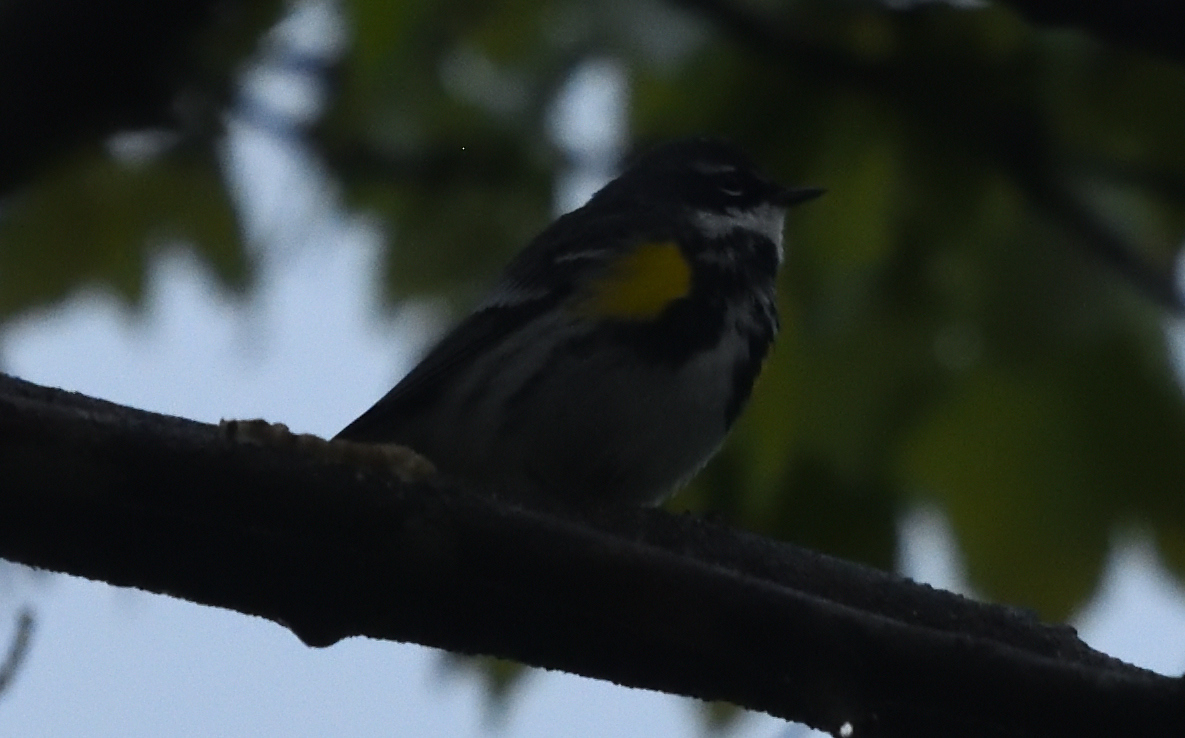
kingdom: Animalia
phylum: Chordata
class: Aves
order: Passeriformes
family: Parulidae
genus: Setophaga
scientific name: Setophaga coronata
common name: Myrtle warbler
